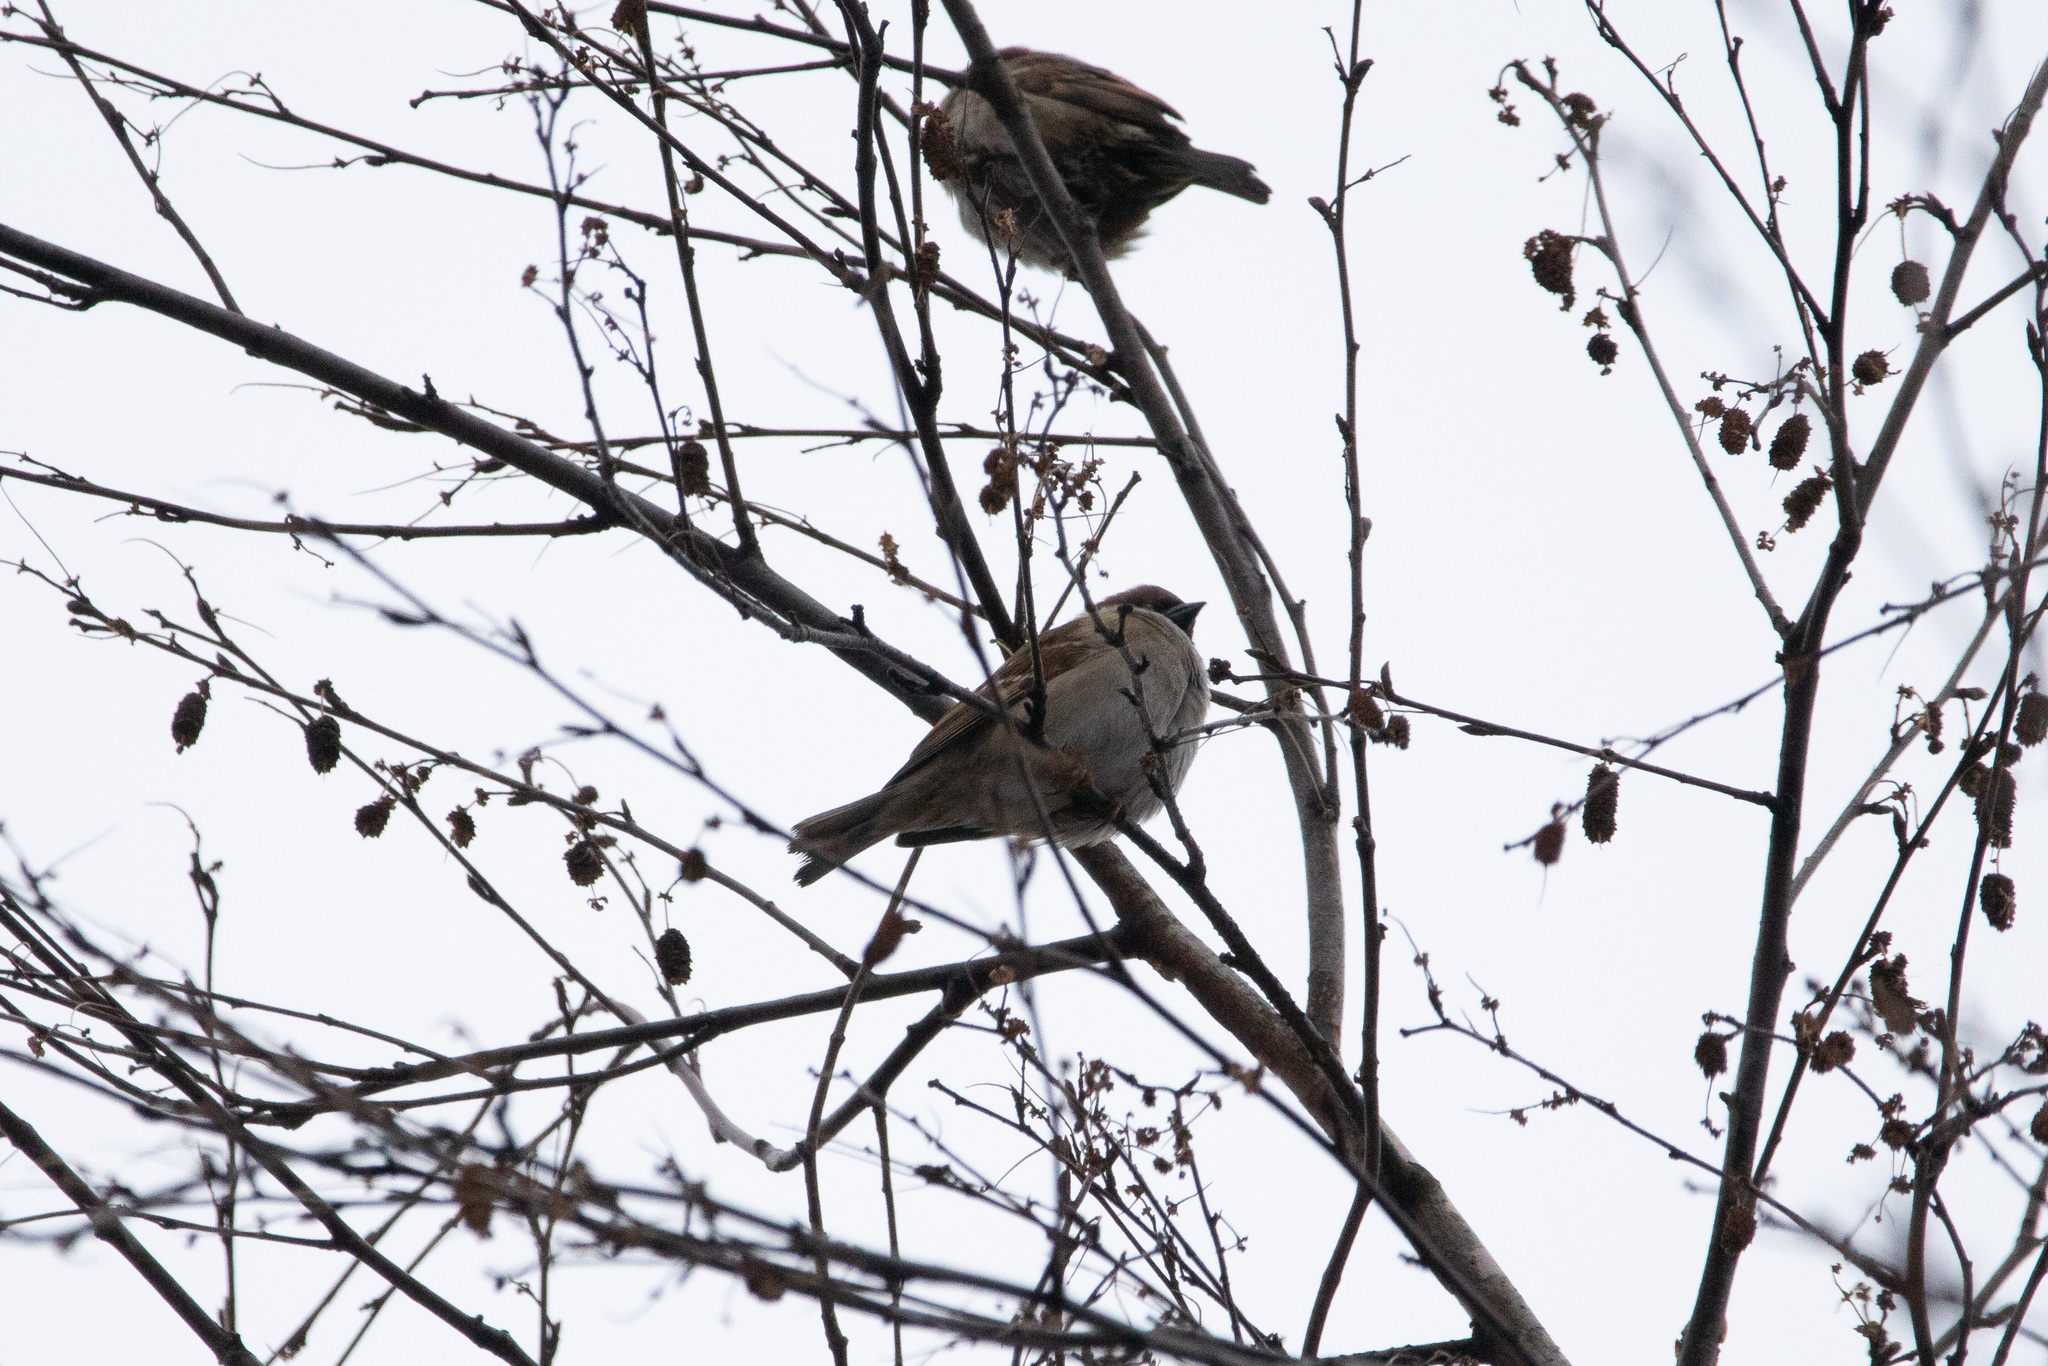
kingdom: Animalia
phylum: Chordata
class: Aves
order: Passeriformes
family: Passeridae
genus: Passer
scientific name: Passer montanus
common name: Eurasian tree sparrow
